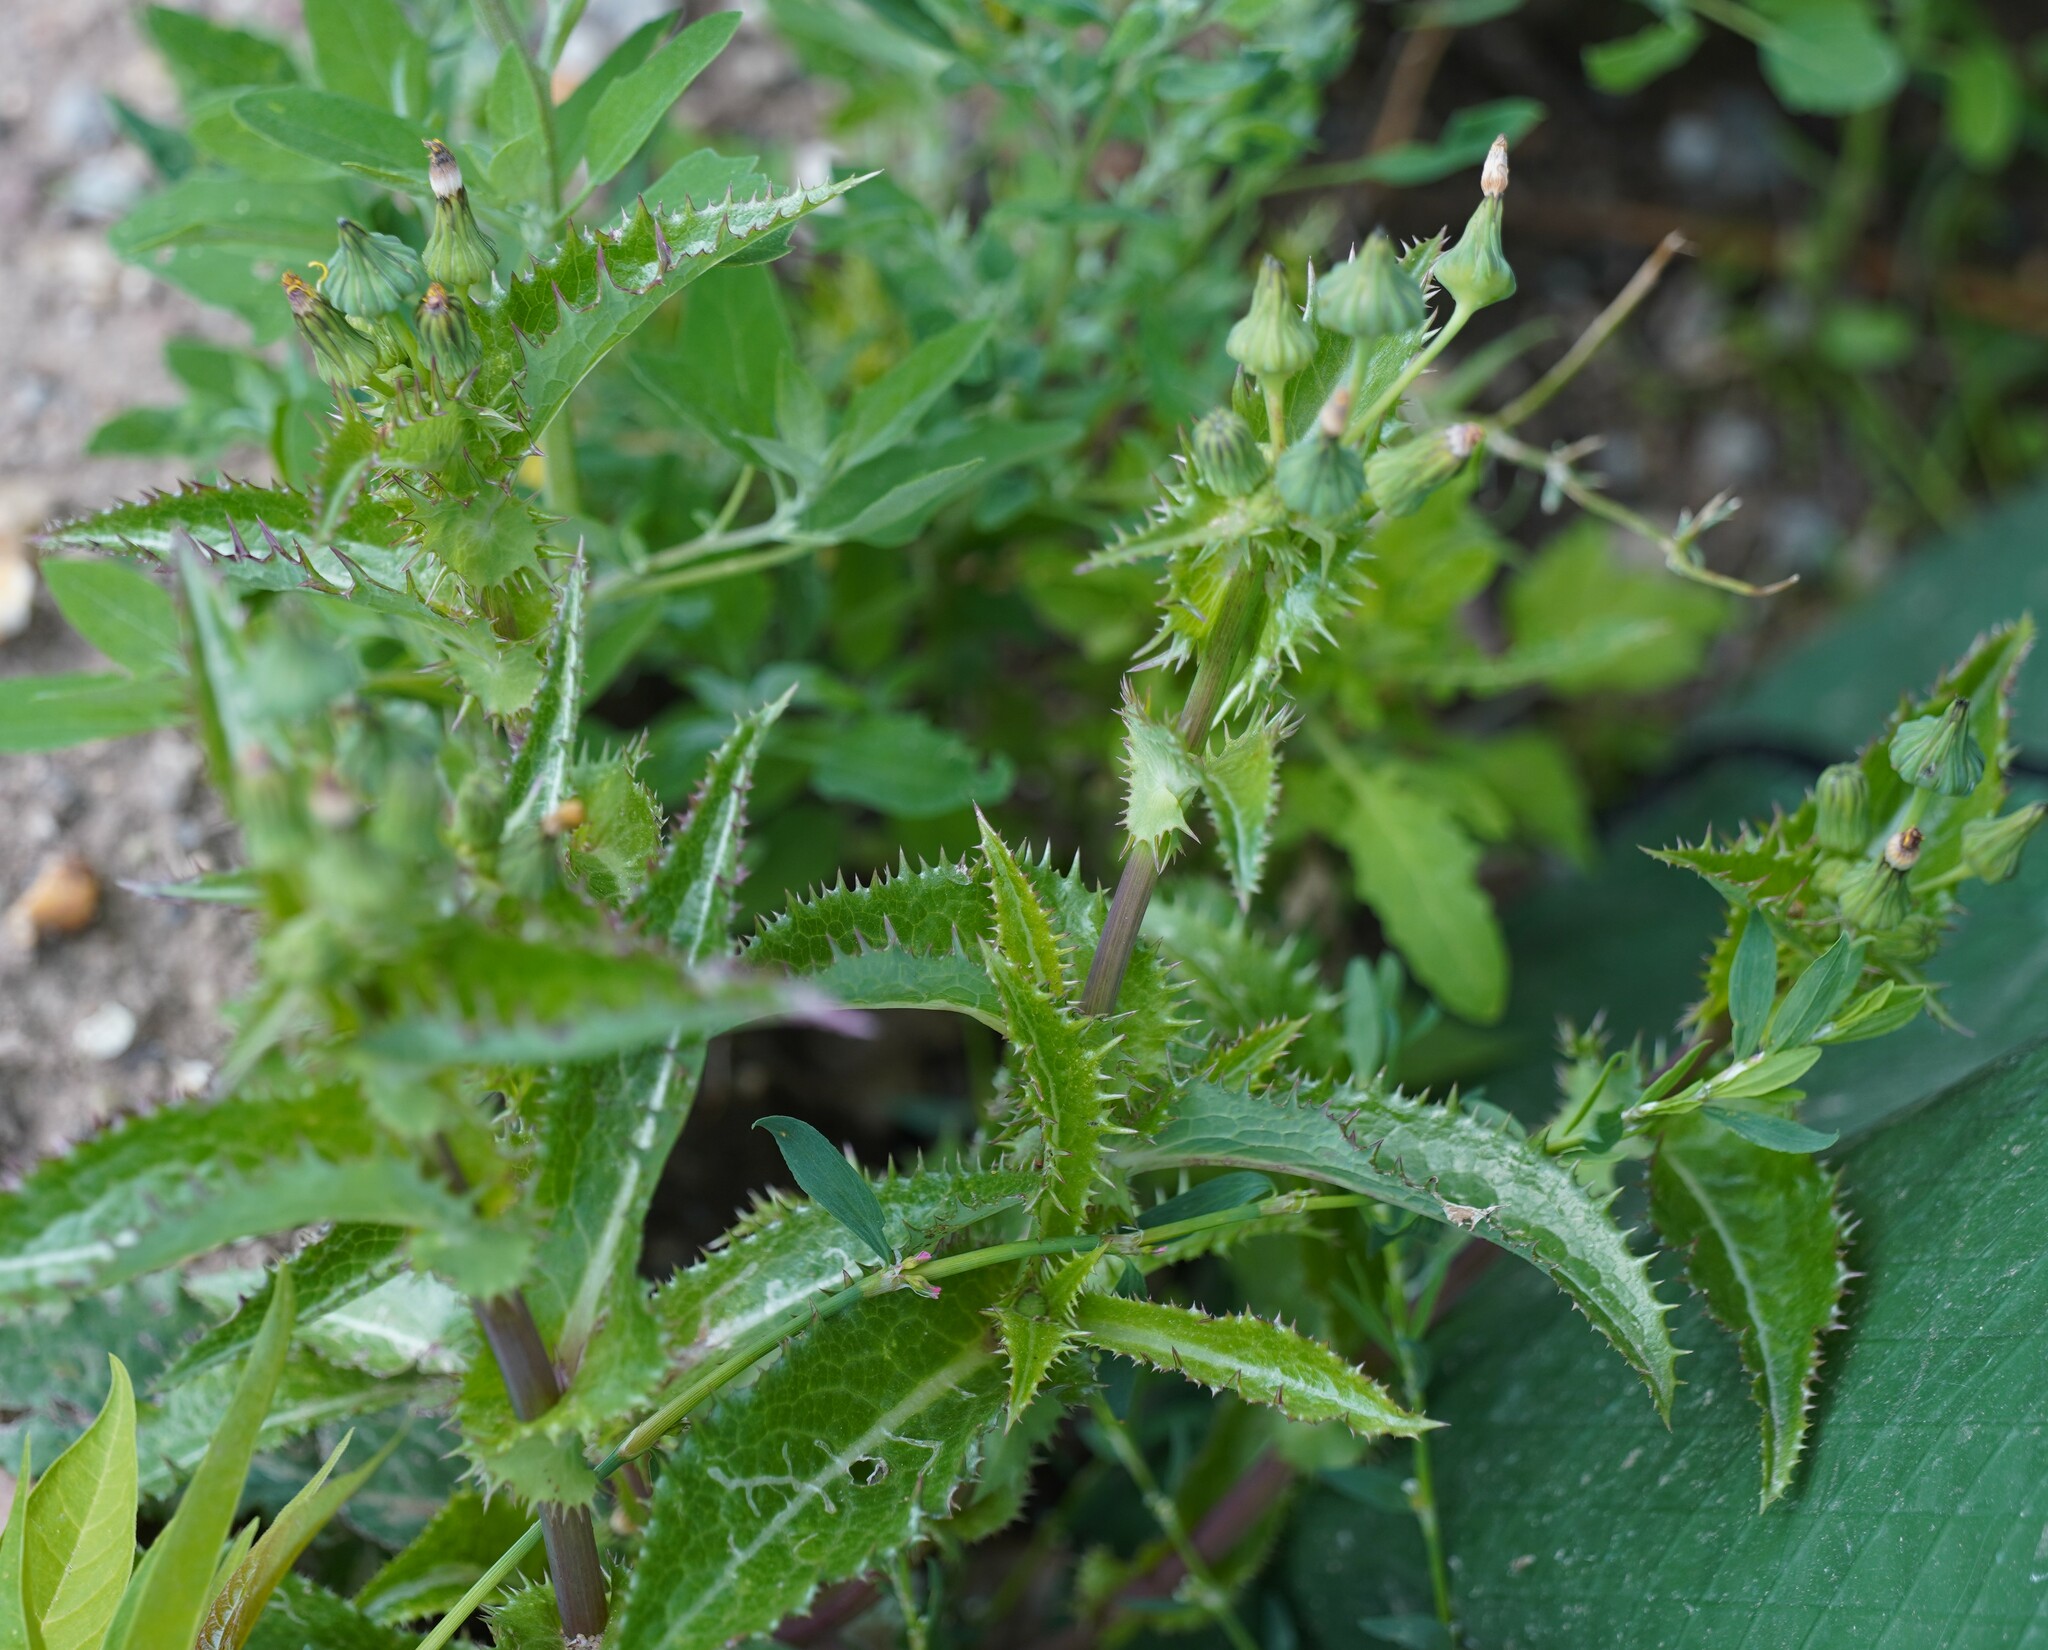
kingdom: Plantae
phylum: Tracheophyta
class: Magnoliopsida
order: Asterales
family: Asteraceae
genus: Sonchus
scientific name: Sonchus asper
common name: Prickly sow-thistle
